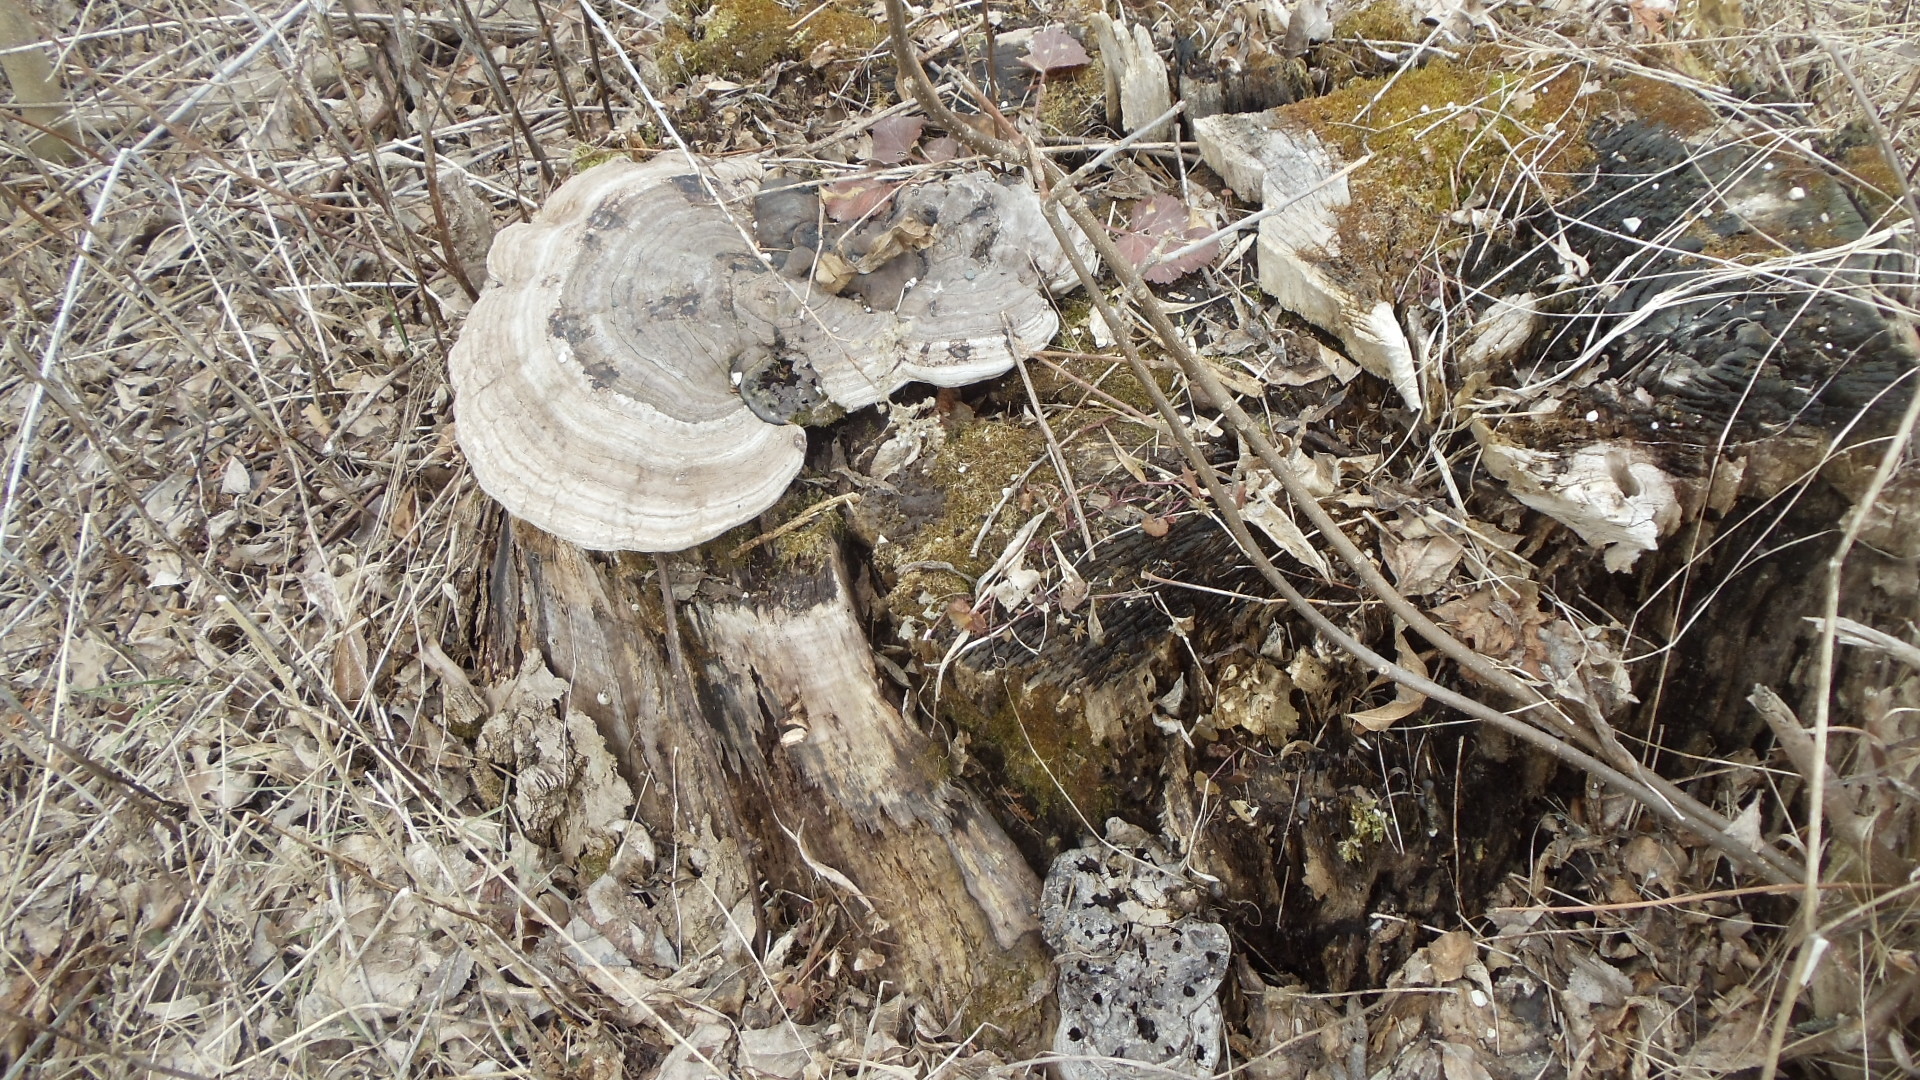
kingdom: Fungi
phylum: Basidiomycota
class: Agaricomycetes
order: Polyporales
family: Polyporaceae
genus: Ganoderma
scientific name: Ganoderma applanatum
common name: Artist's bracket
